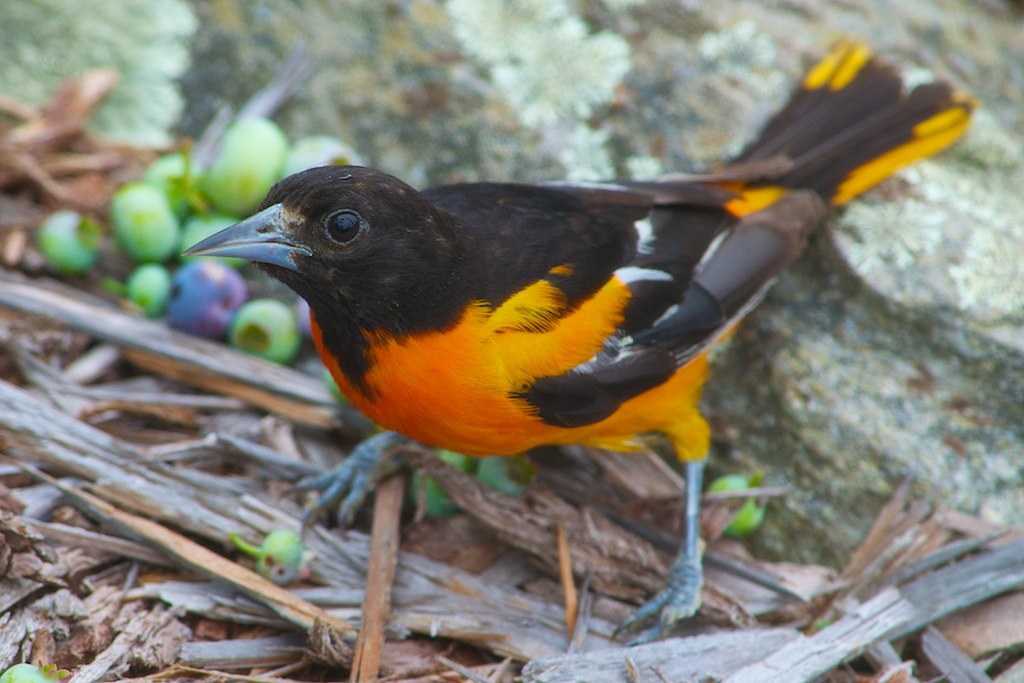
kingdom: Animalia
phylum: Chordata
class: Aves
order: Passeriformes
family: Icteridae
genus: Icterus
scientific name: Icterus galbula
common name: Baltimore oriole
